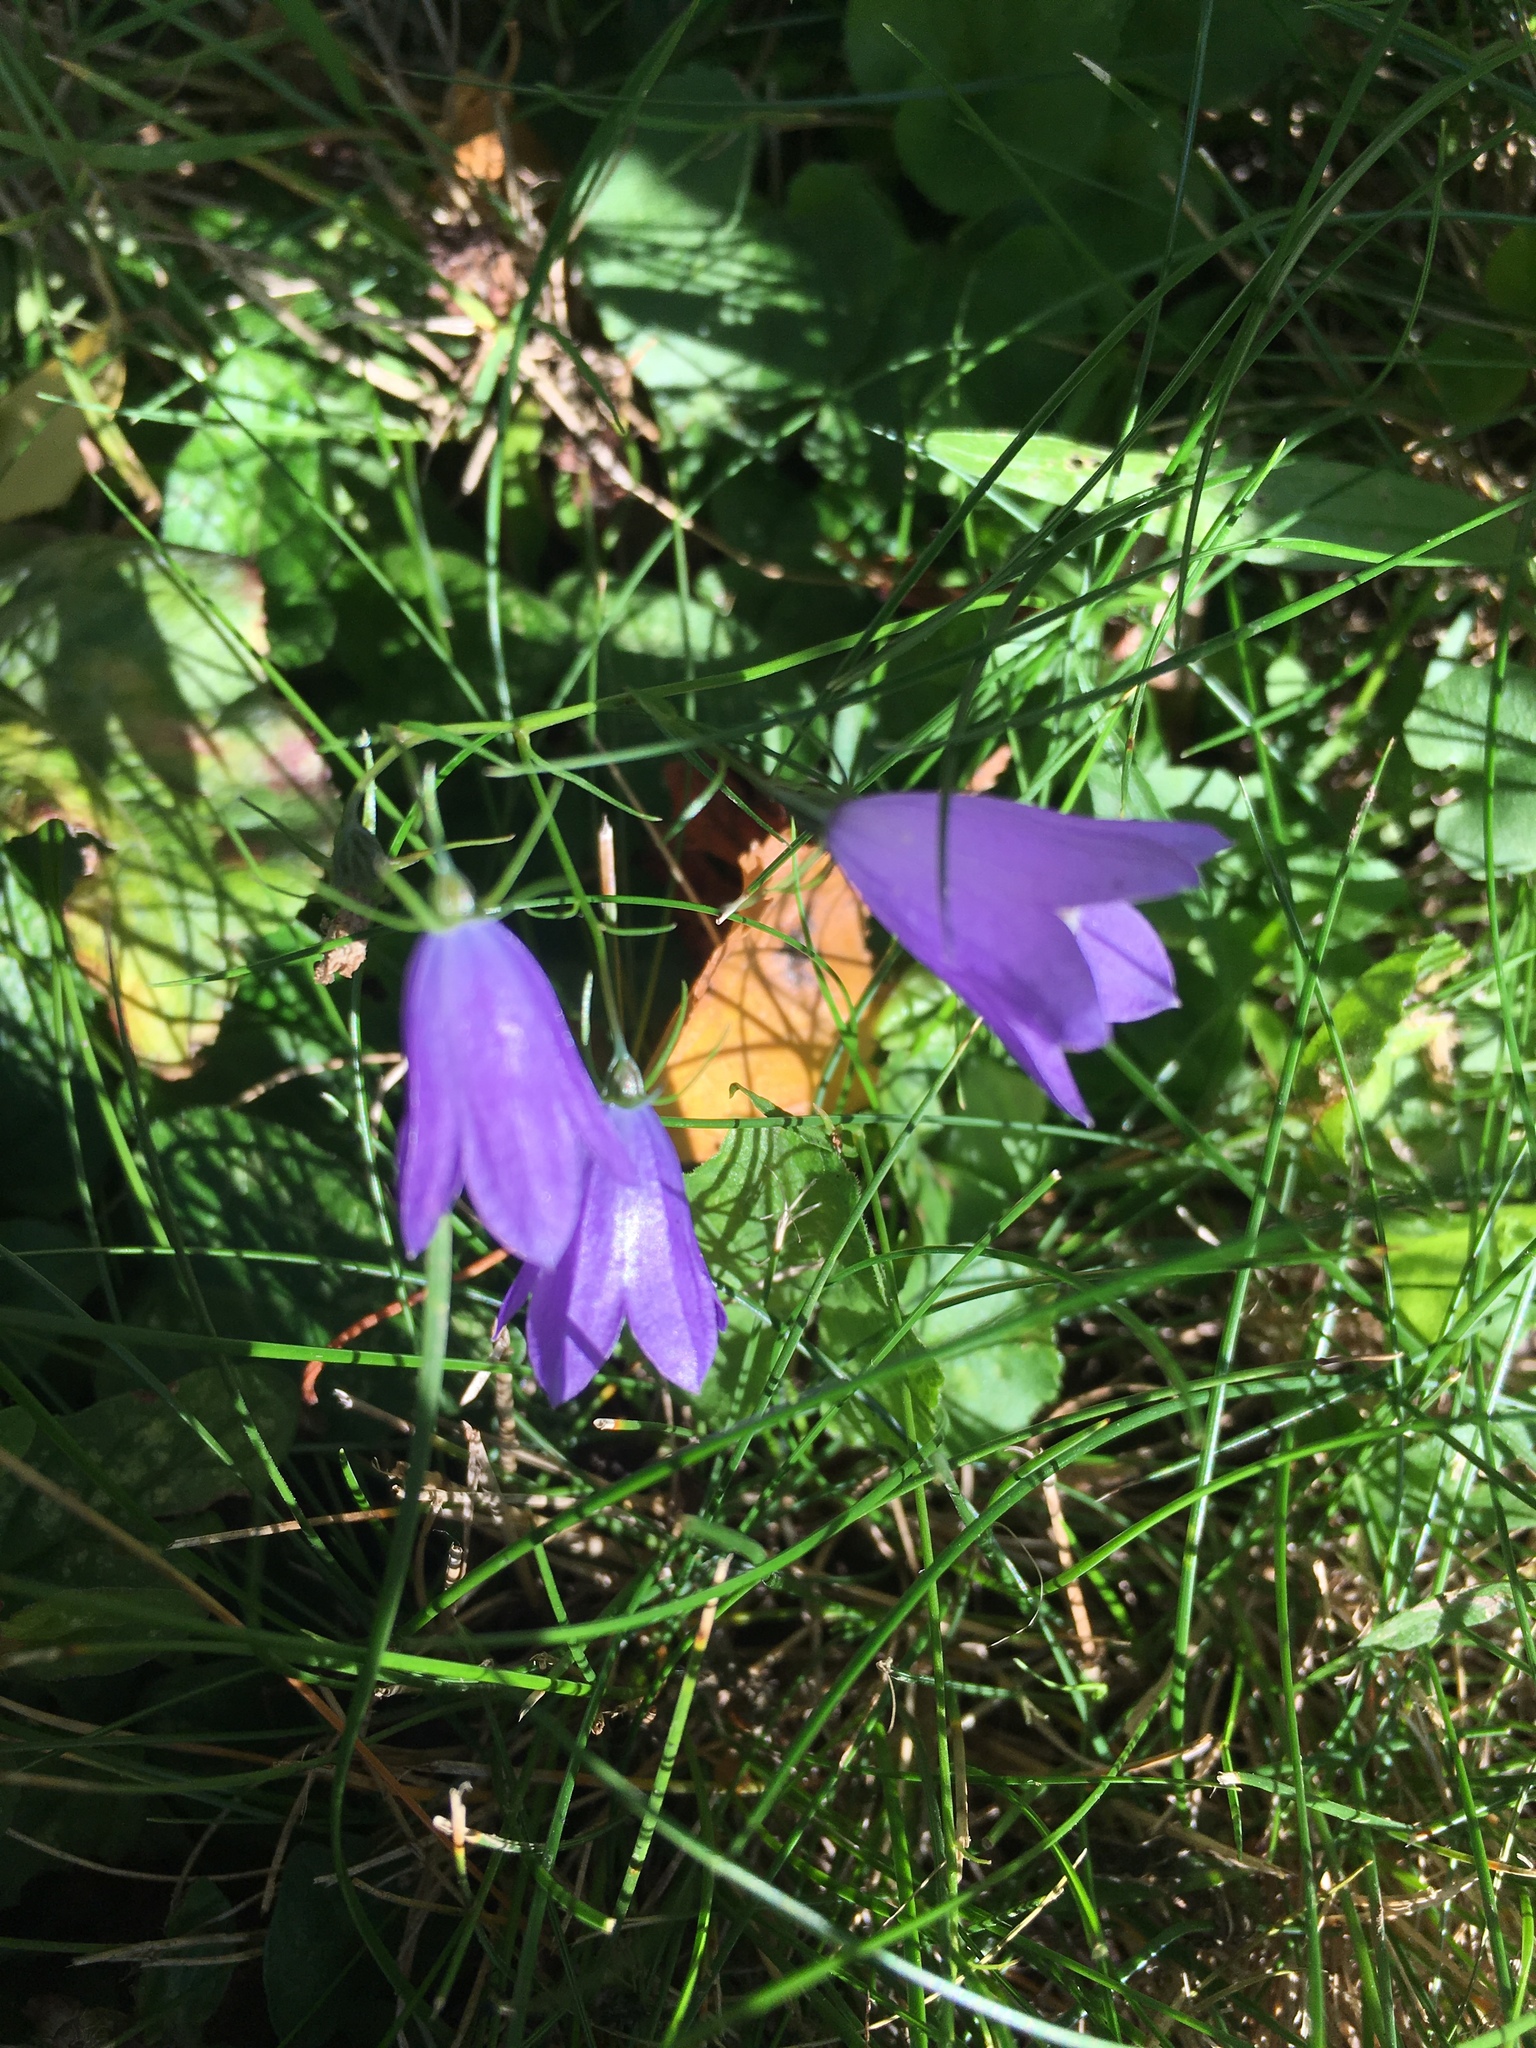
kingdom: Plantae
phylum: Tracheophyta
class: Magnoliopsida
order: Asterales
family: Campanulaceae
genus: Campanula
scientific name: Campanula rotundifolia
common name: Harebell
